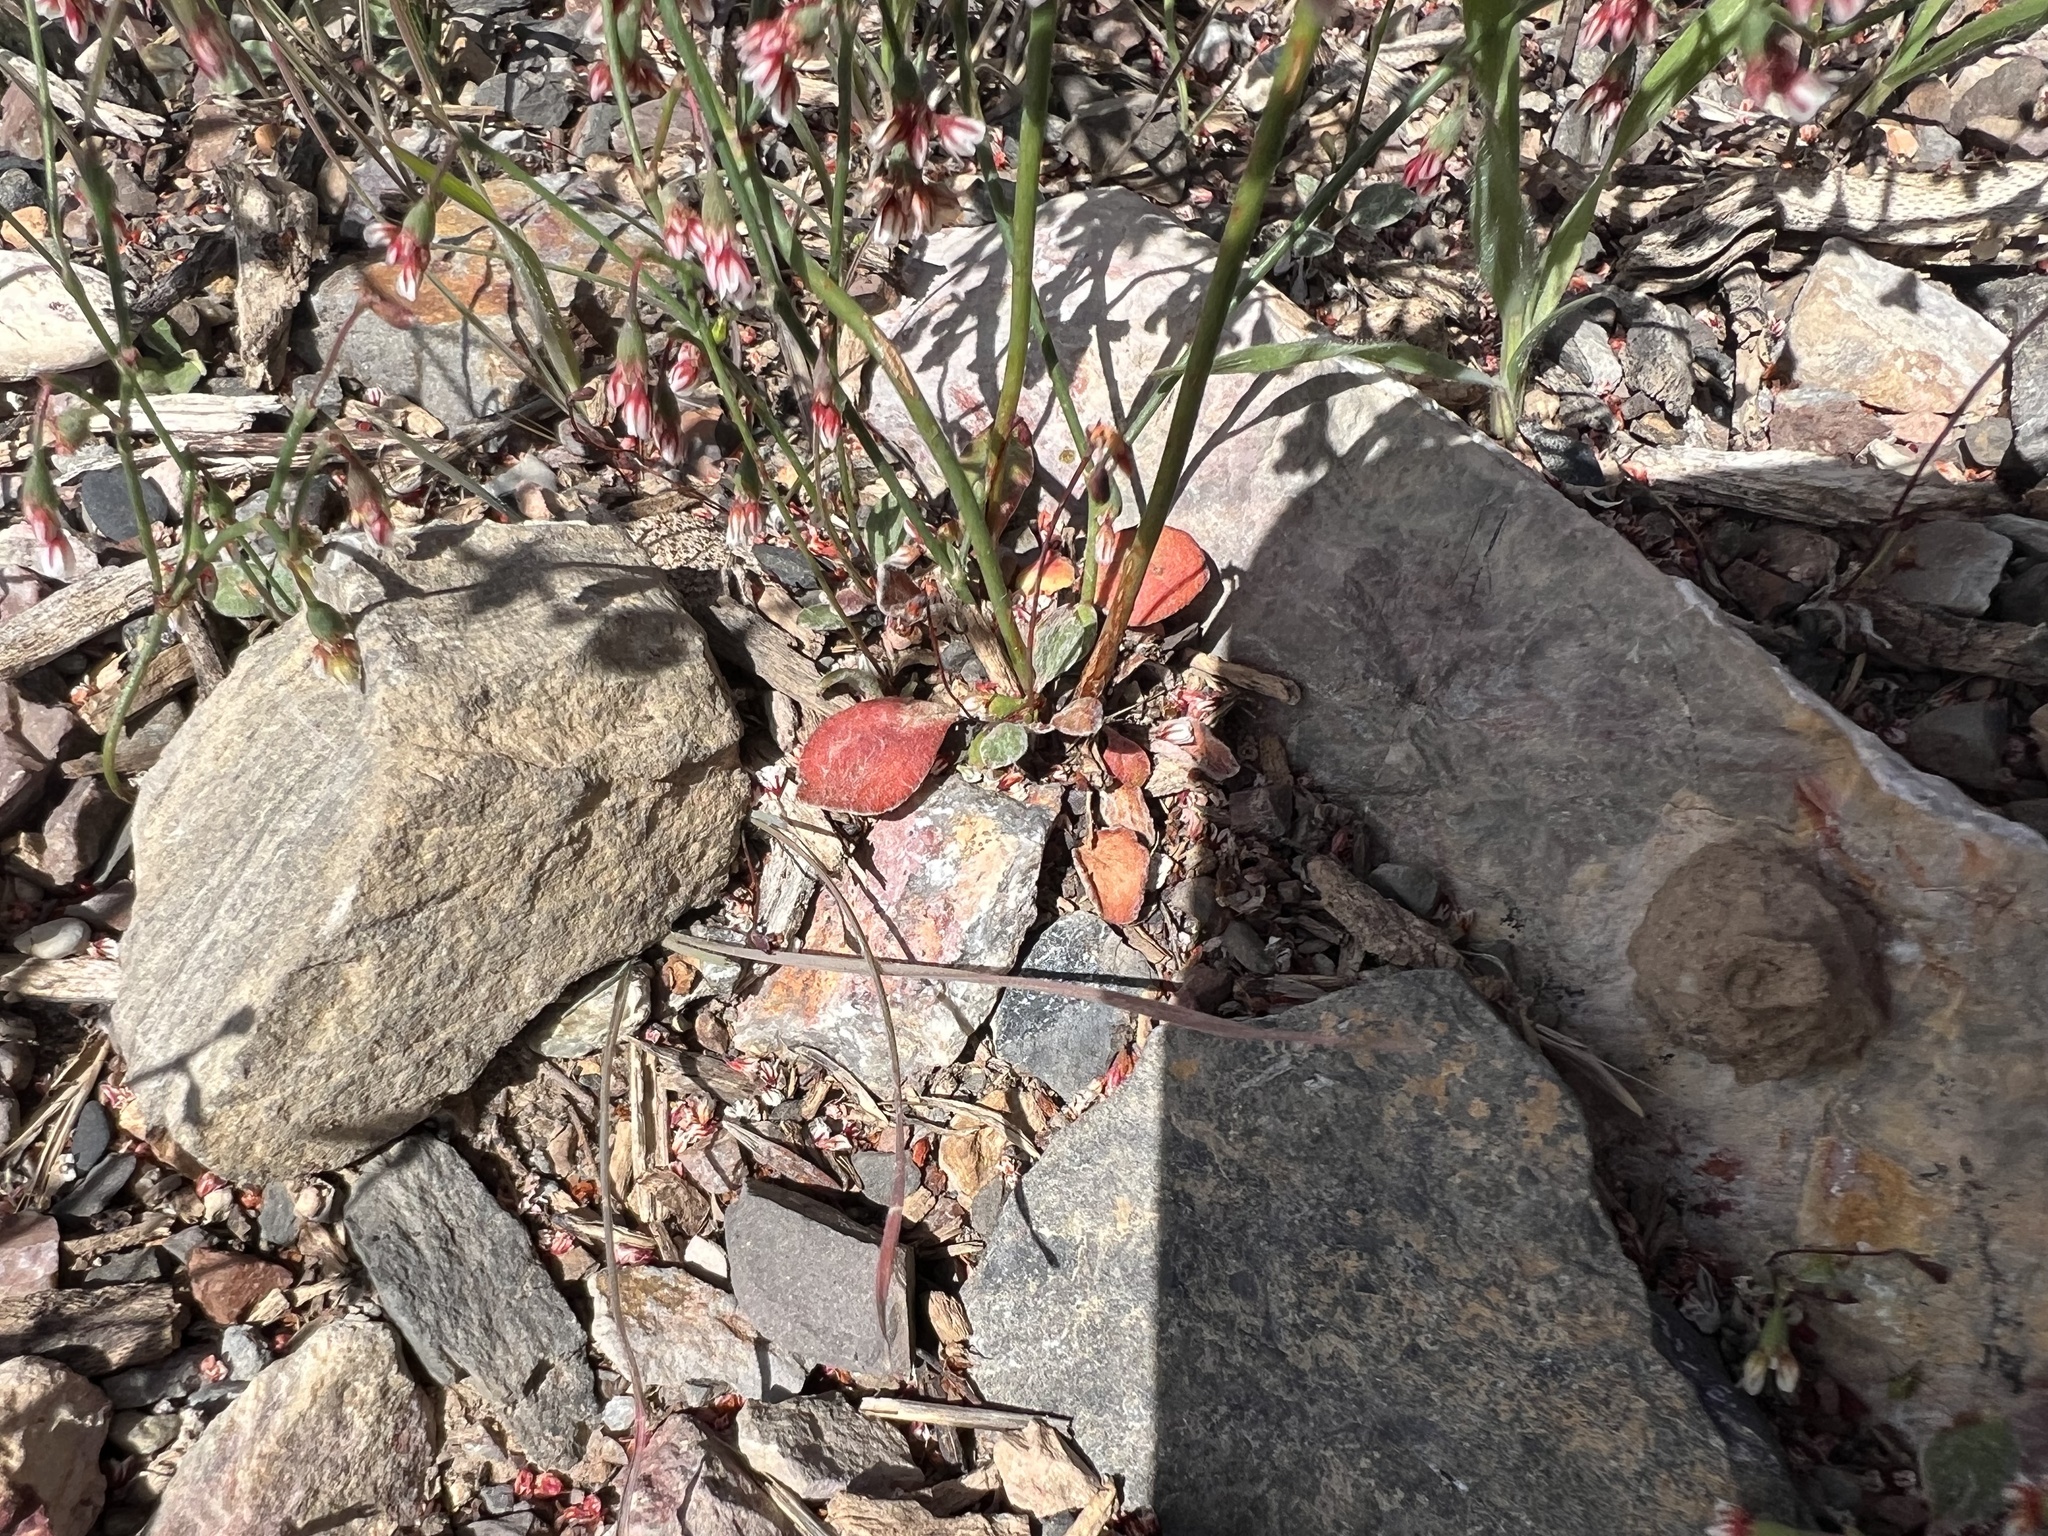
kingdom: Plantae
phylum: Tracheophyta
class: Magnoliopsida
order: Caryophyllales
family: Polygonaceae
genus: Eriogonum
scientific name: Eriogonum cernuum
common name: Nodding wild buckwheat
